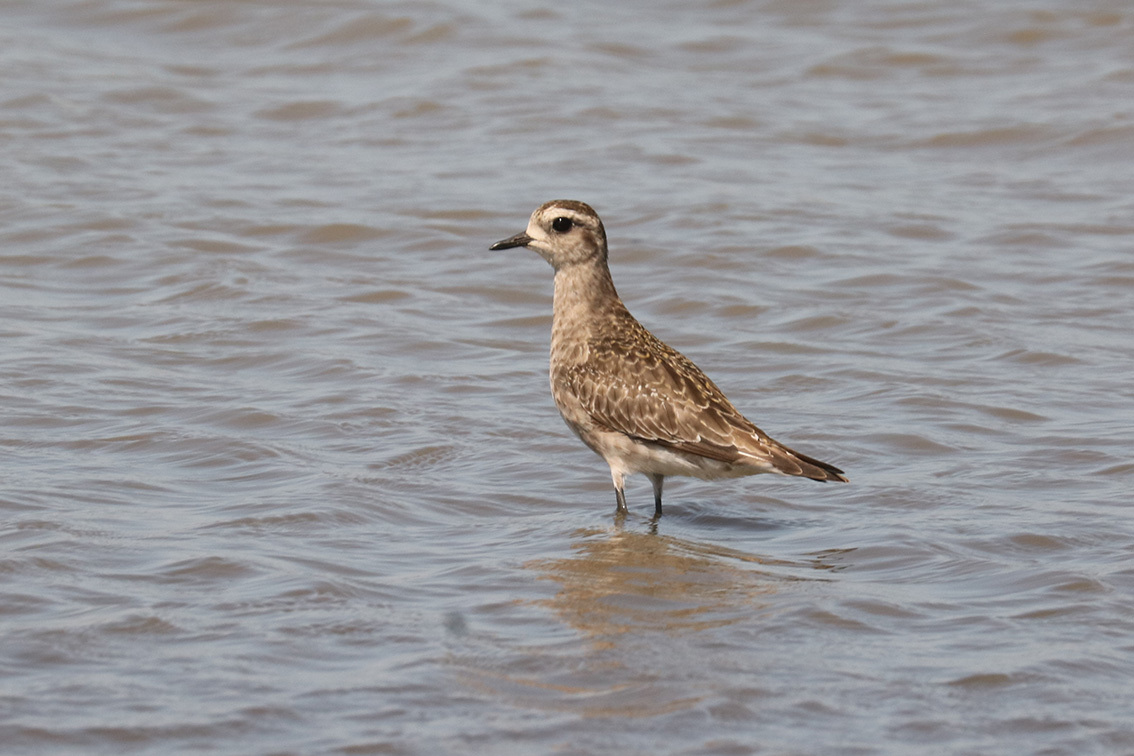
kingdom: Animalia
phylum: Chordata
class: Aves
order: Charadriiformes
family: Charadriidae
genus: Pluvialis
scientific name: Pluvialis dominica
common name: American golden plover
